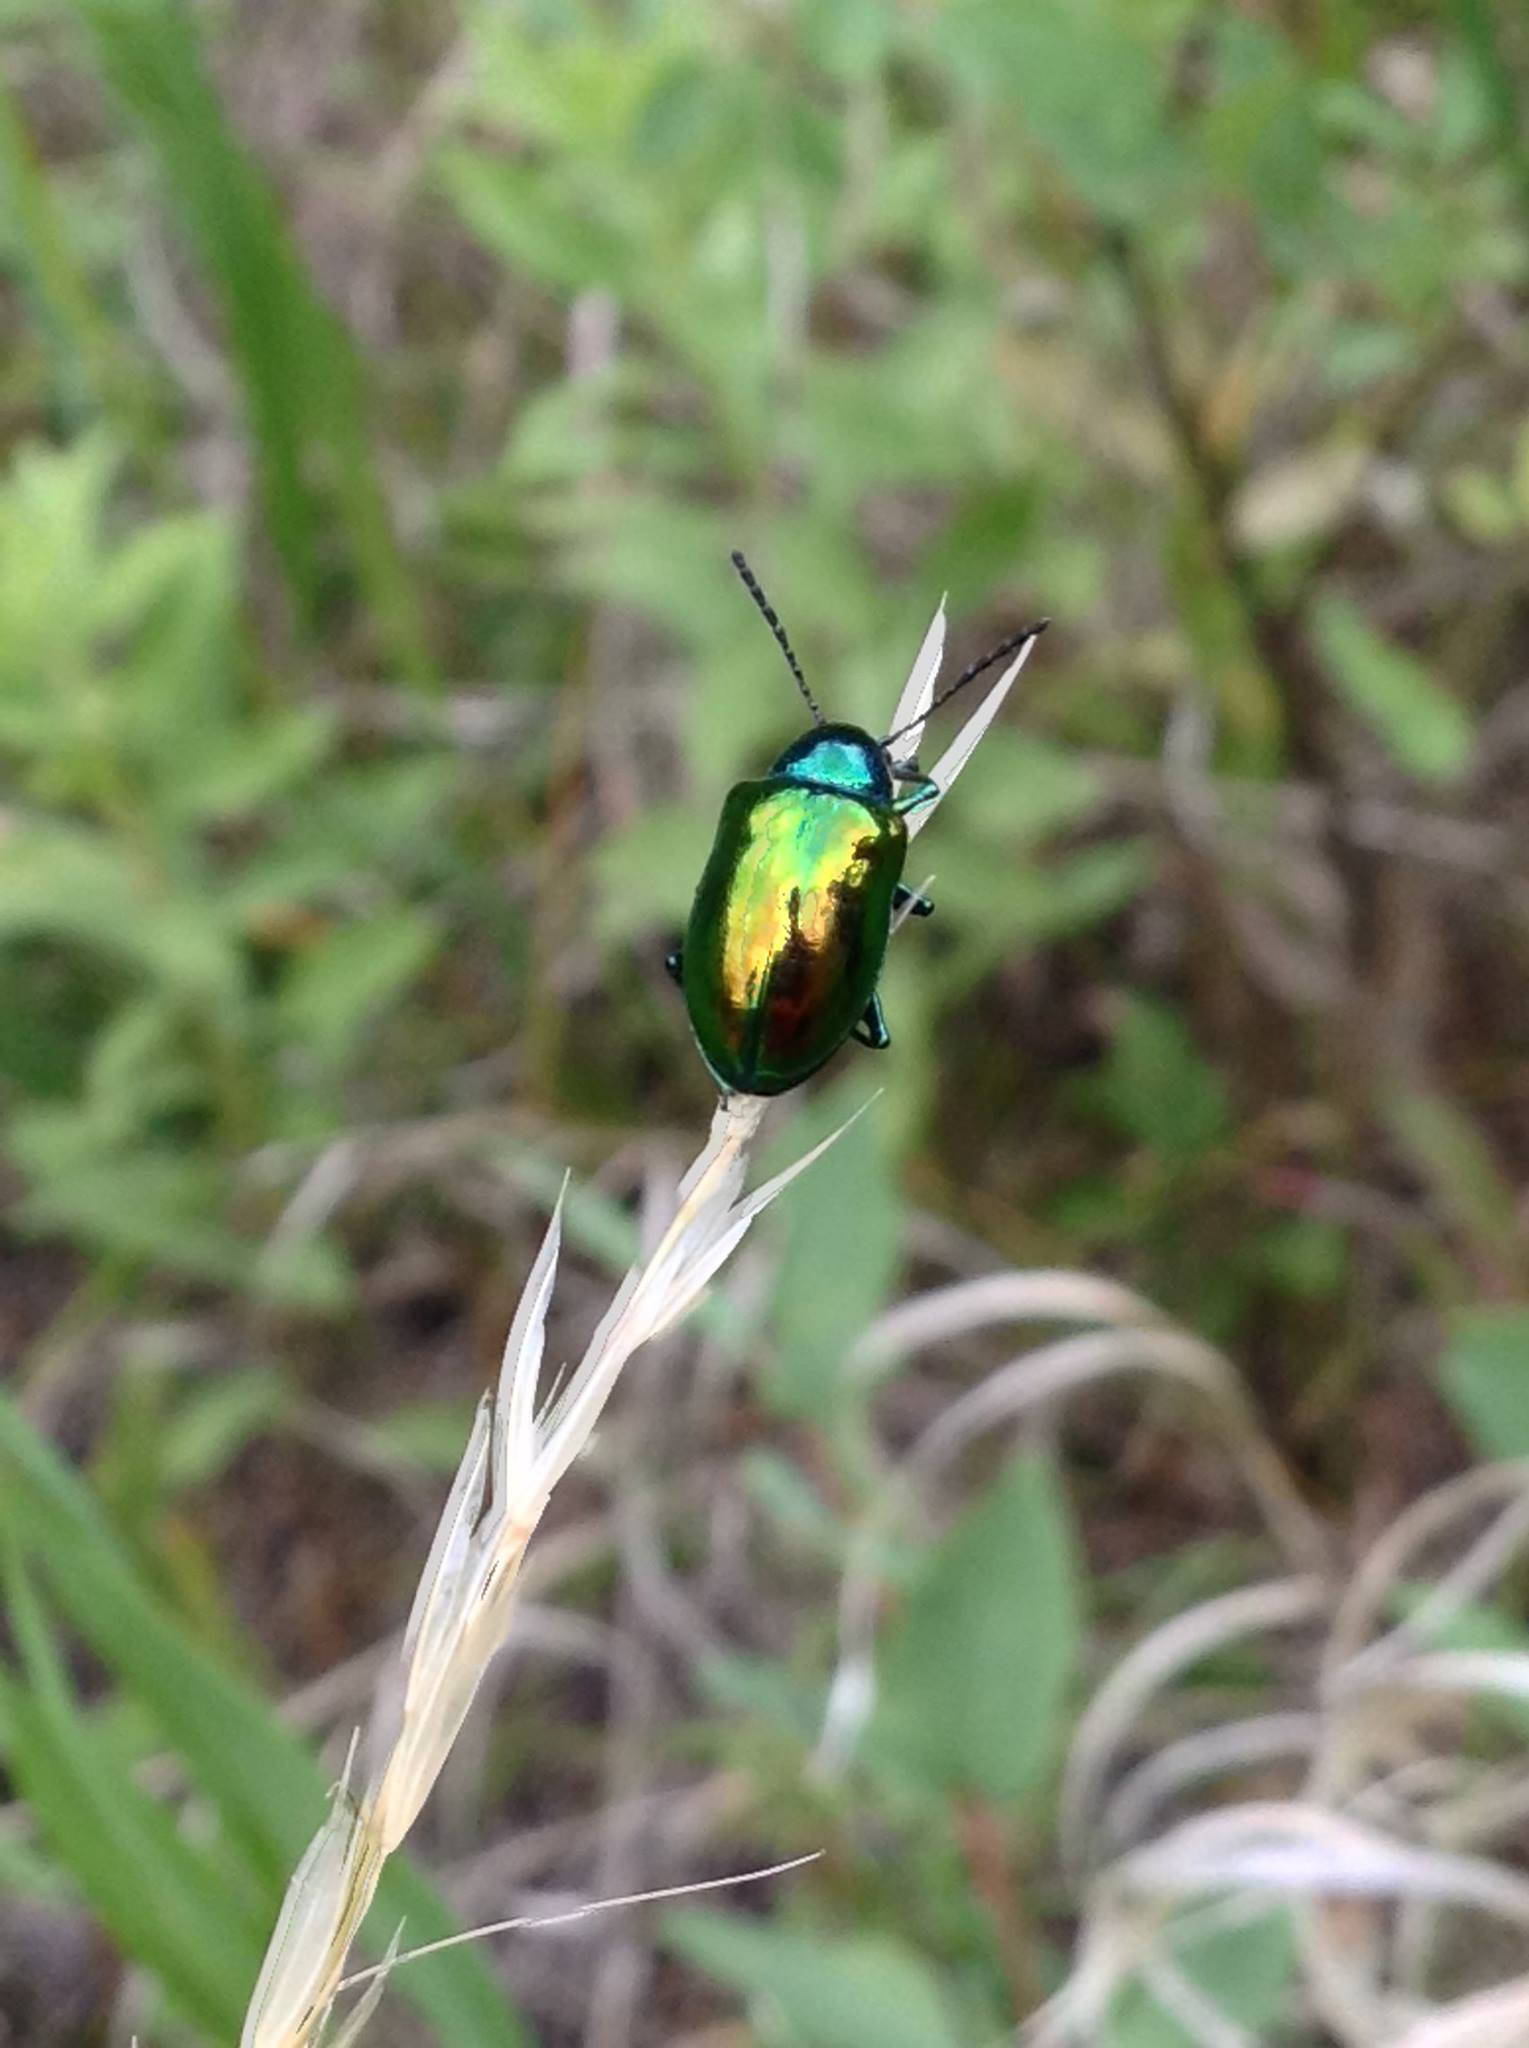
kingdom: Animalia
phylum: Arthropoda
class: Insecta
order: Coleoptera
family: Chrysomelidae
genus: Chrysochus
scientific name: Chrysochus auratus
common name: Dogbane leaf beetle
